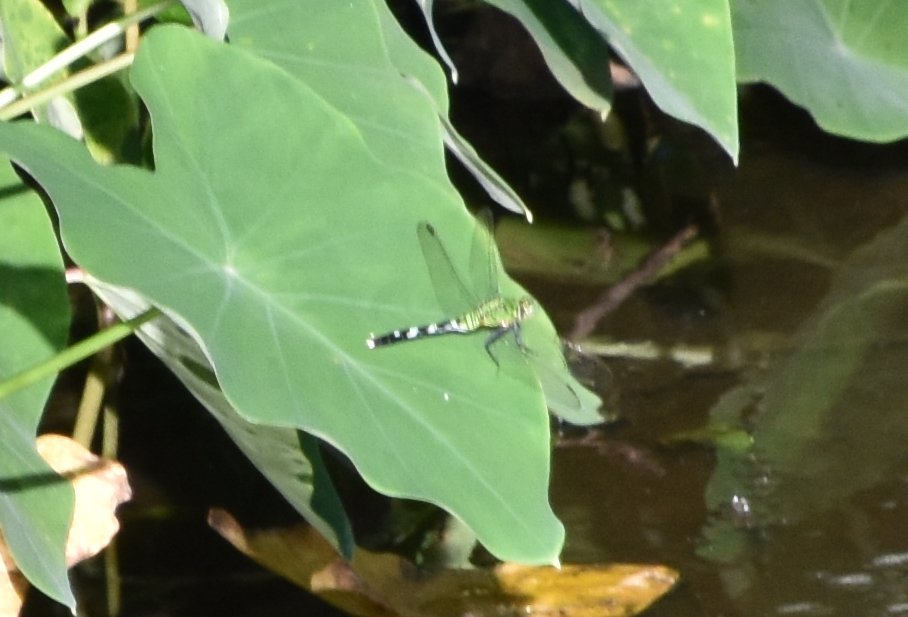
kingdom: Animalia
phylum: Arthropoda
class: Insecta
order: Odonata
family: Libellulidae
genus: Erythemis
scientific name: Erythemis simplicicollis
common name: Eastern pondhawk
